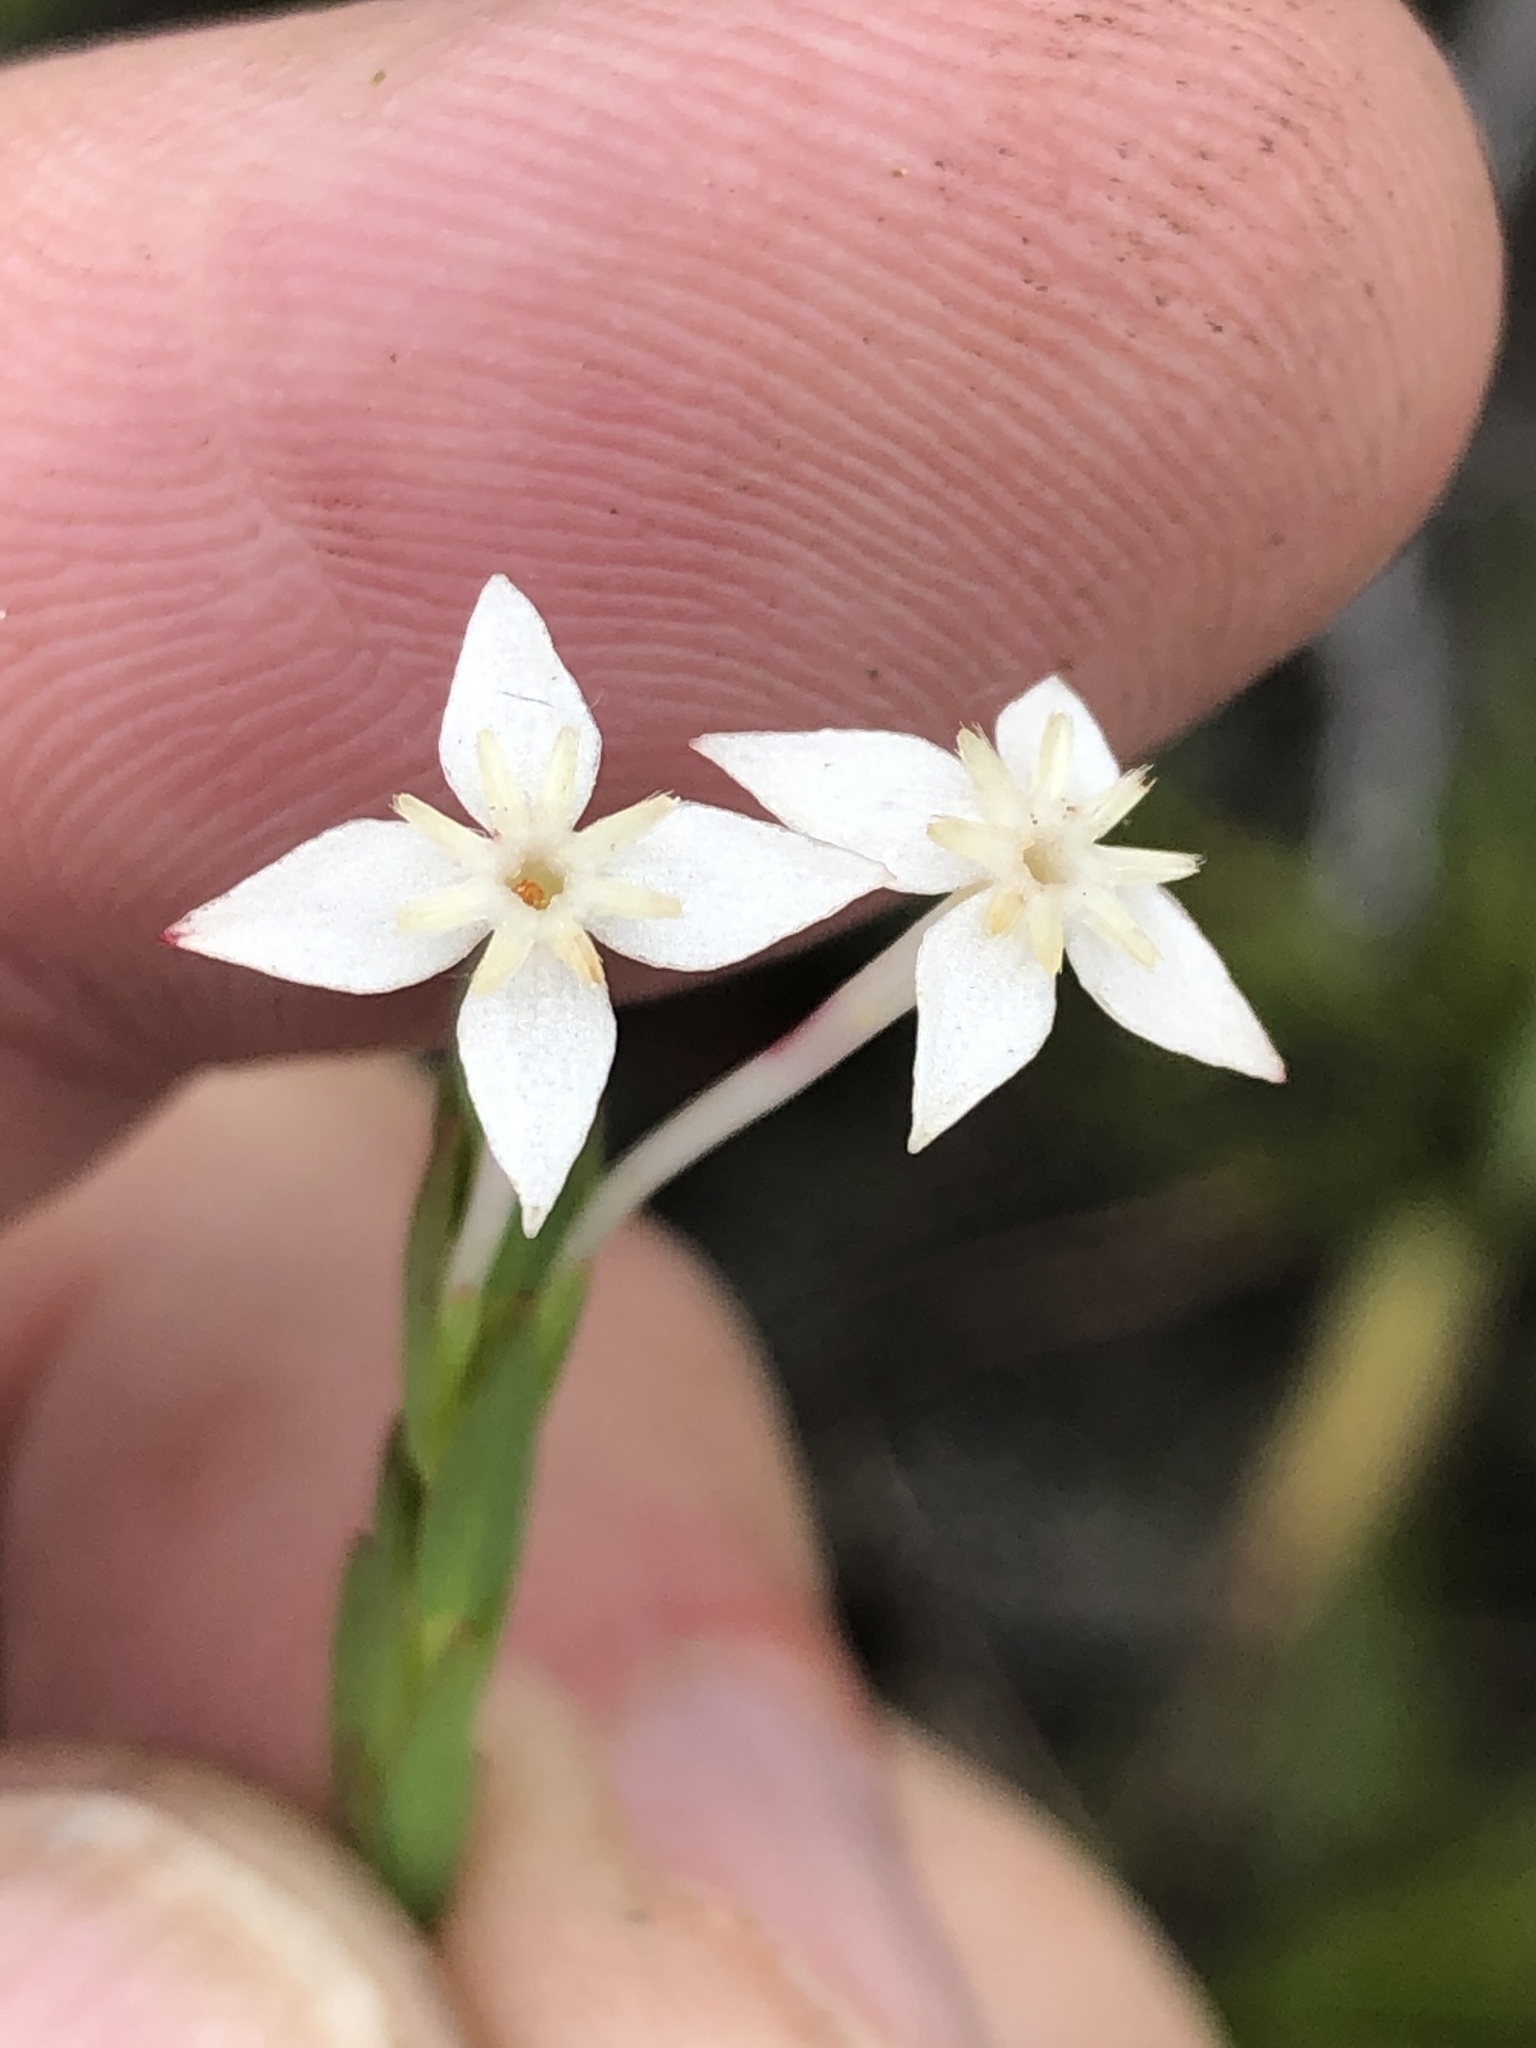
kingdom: Plantae
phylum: Tracheophyta
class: Magnoliopsida
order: Malvales
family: Thymelaeaceae
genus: Struthiola
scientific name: Struthiola myrsinites
